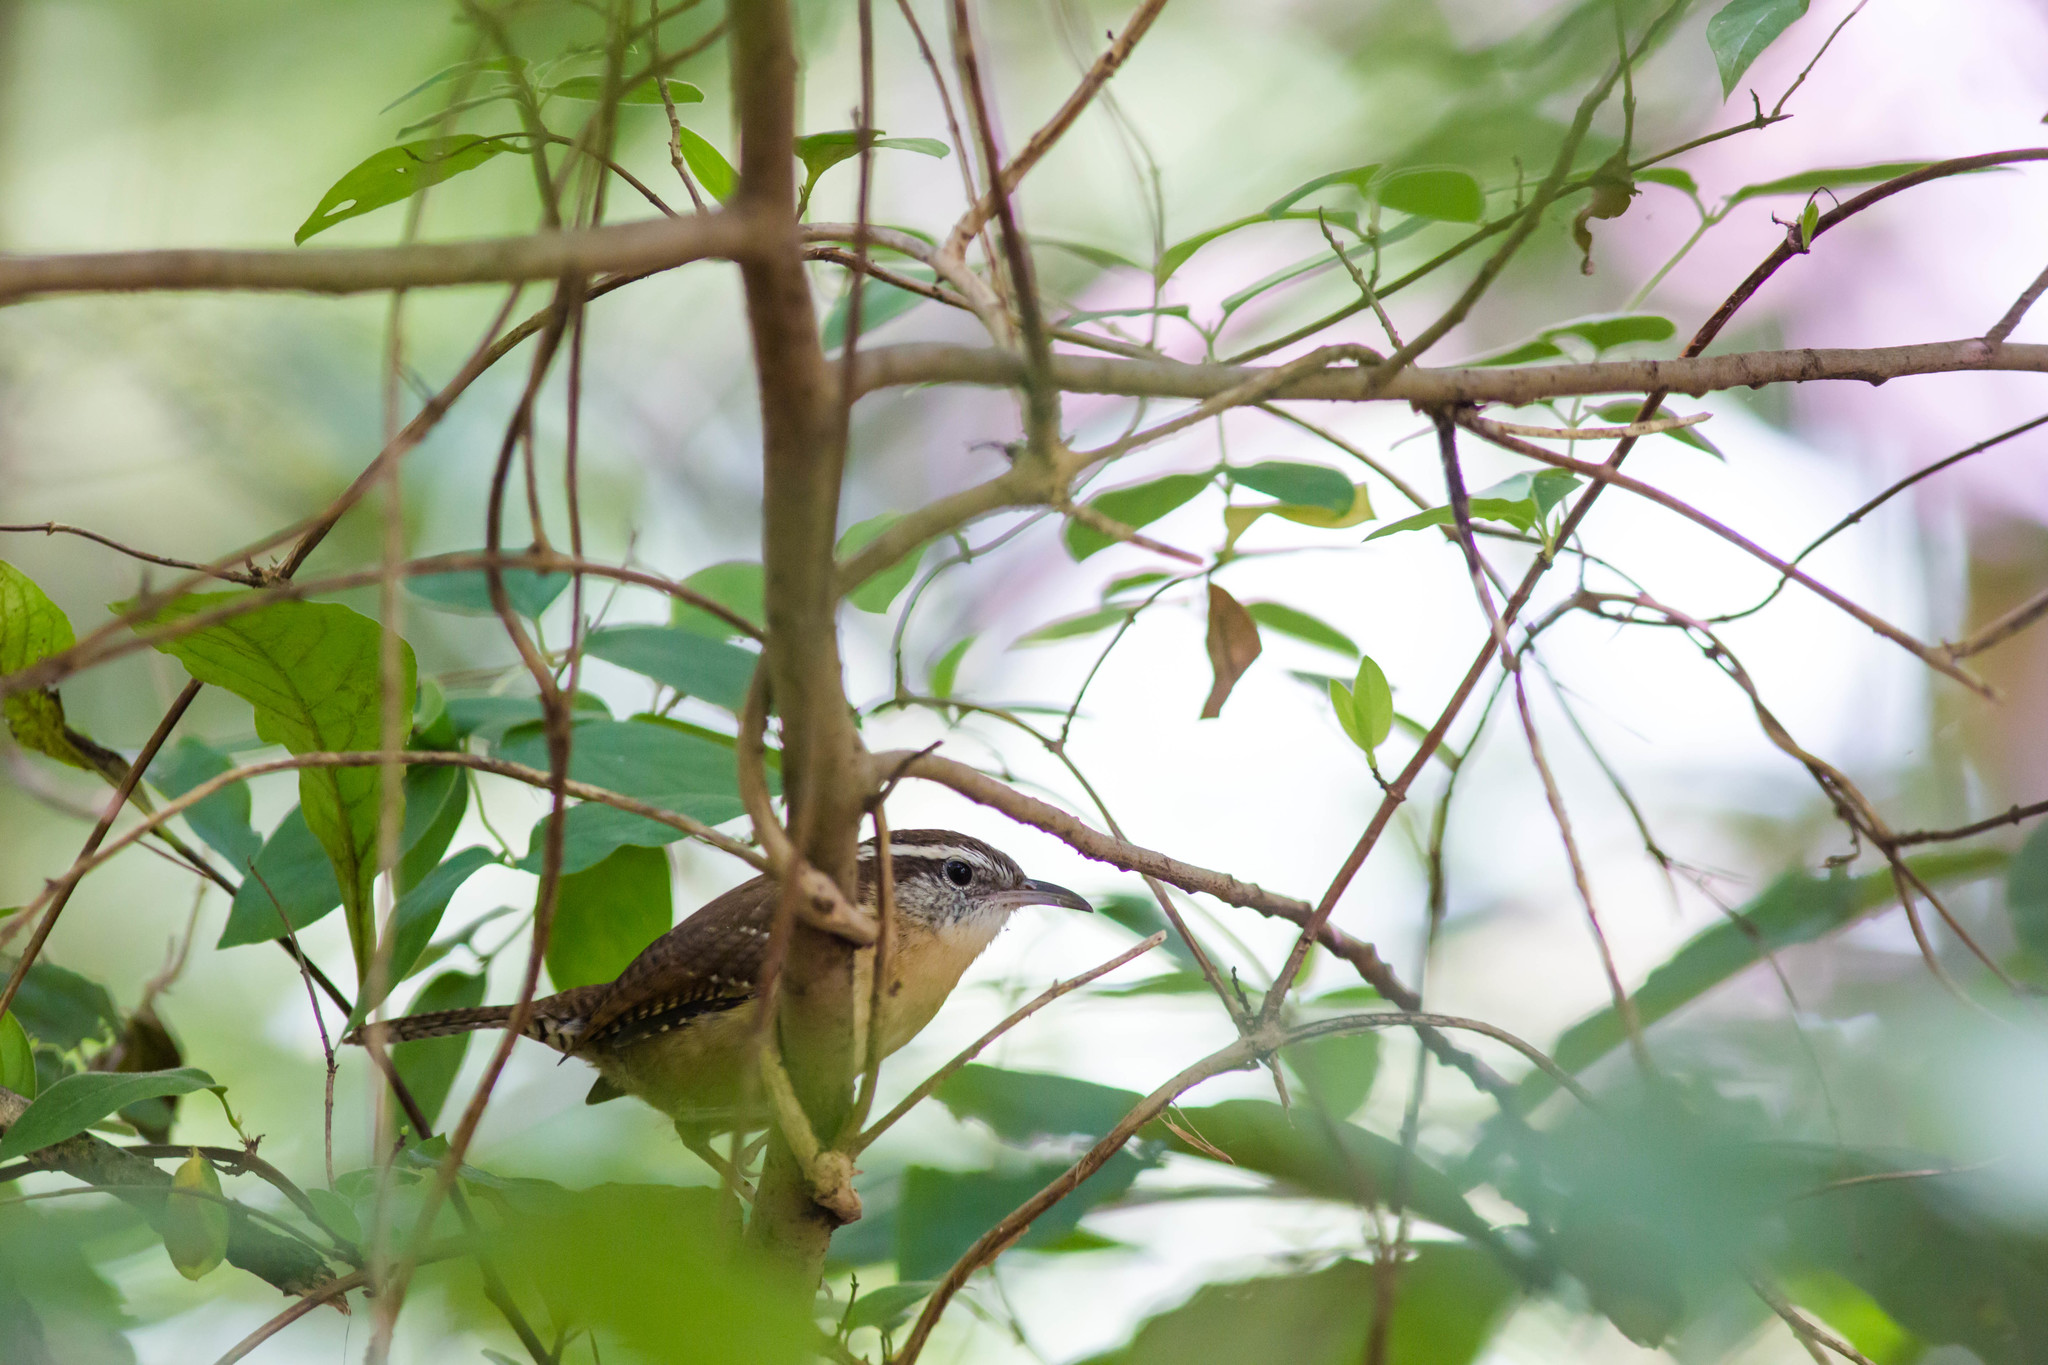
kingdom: Animalia
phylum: Chordata
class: Aves
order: Passeriformes
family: Troglodytidae
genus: Thryothorus
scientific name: Thryothorus ludovicianus
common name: Carolina wren
